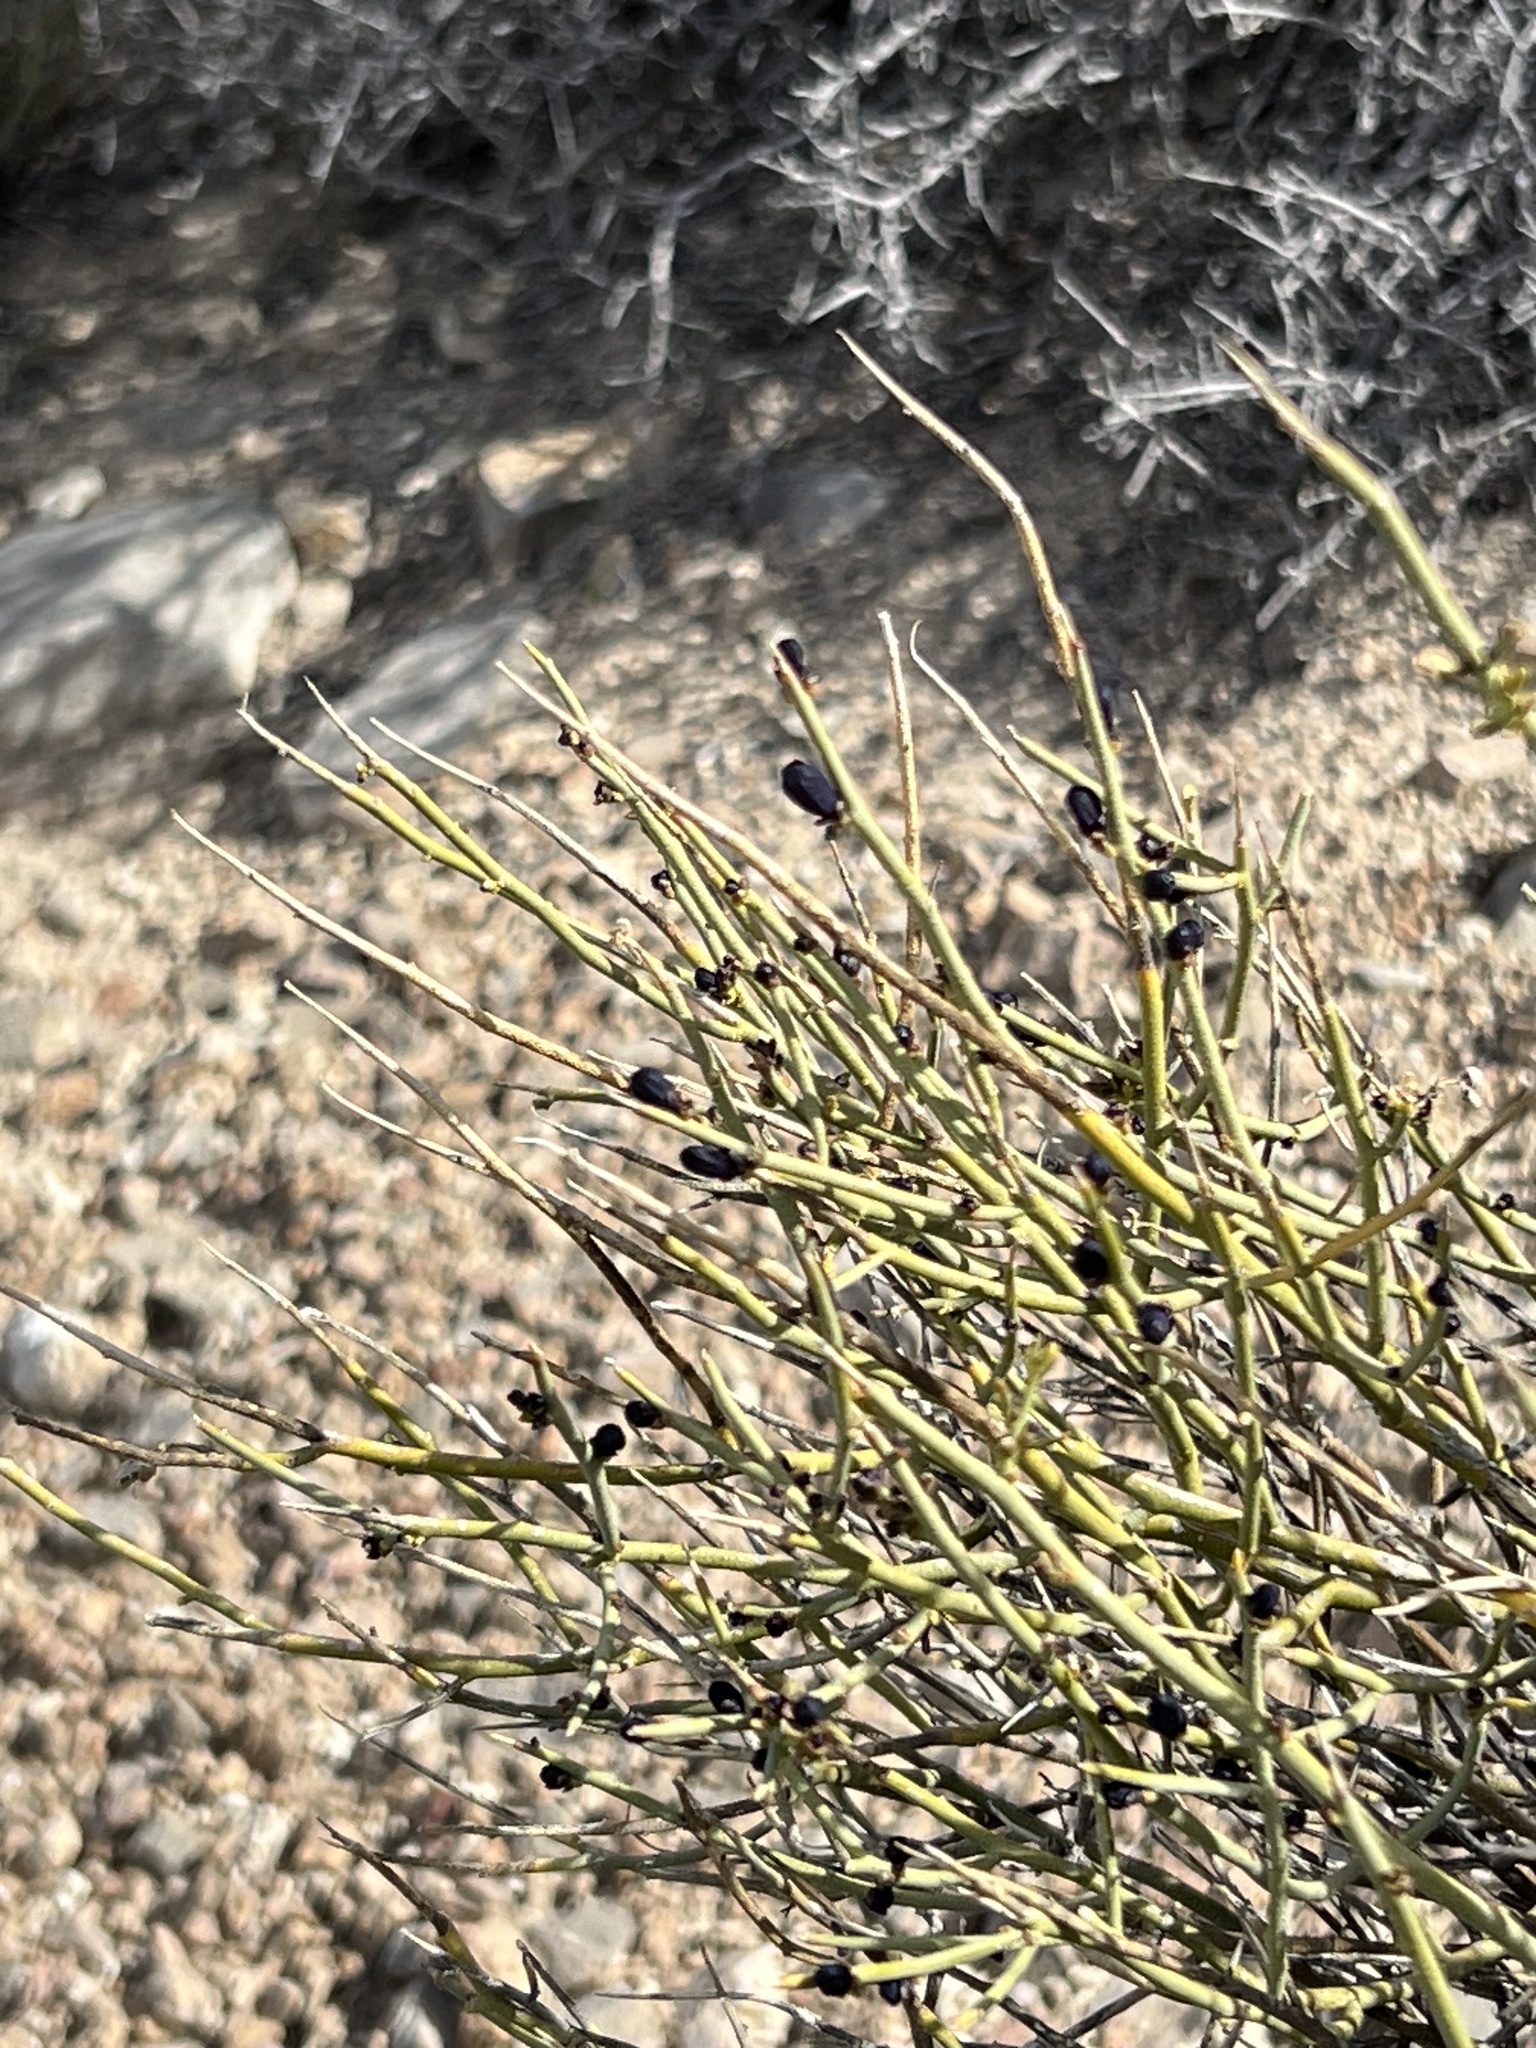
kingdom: Plantae
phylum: Tracheophyta
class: Magnoliopsida
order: Sapindales
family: Rutaceae
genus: Thamnosma
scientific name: Thamnosma montana
